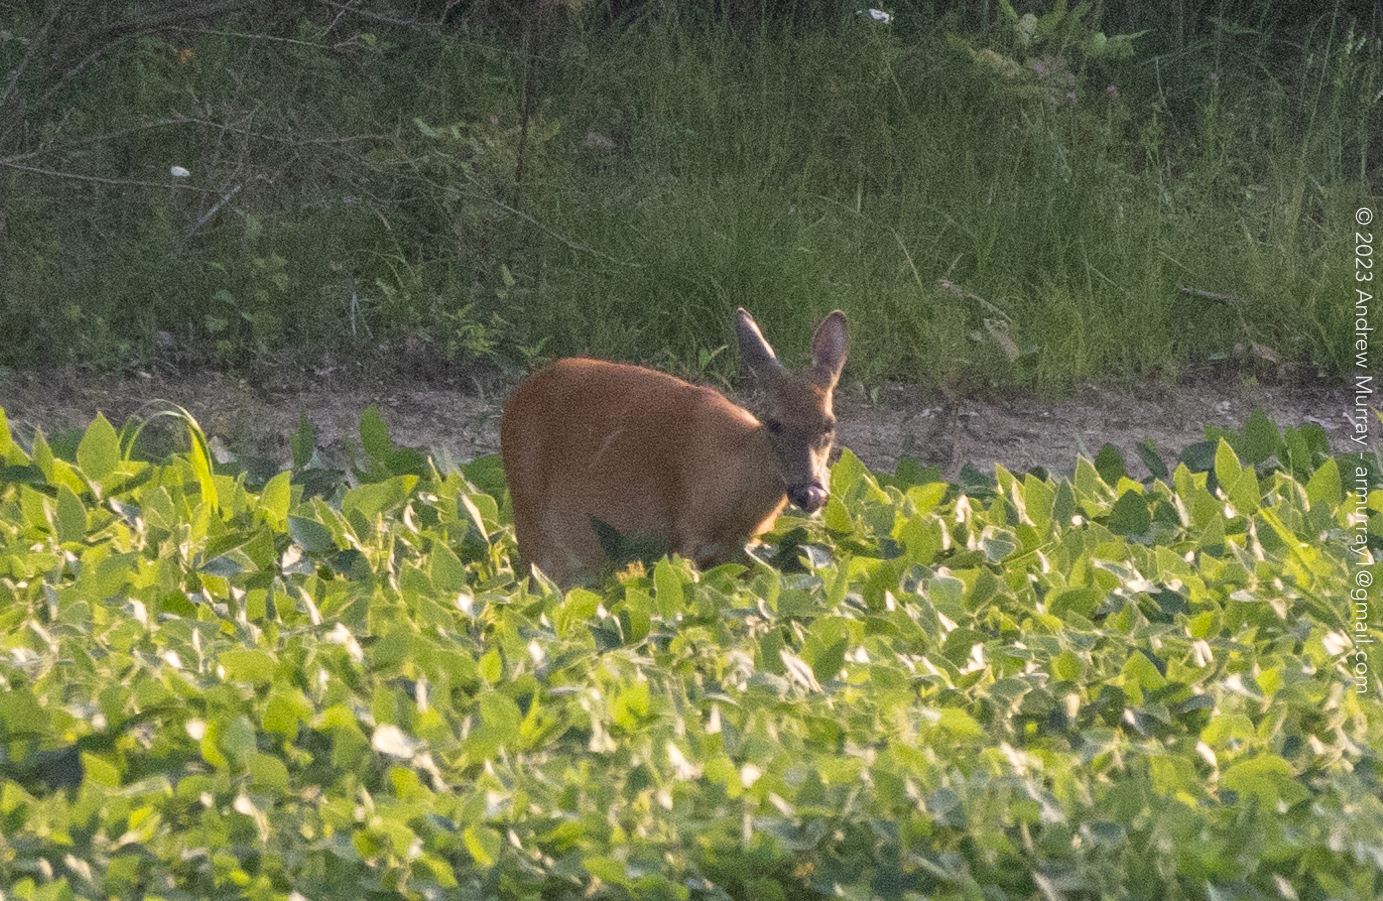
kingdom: Animalia
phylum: Chordata
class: Mammalia
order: Artiodactyla
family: Cervidae
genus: Odocoileus
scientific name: Odocoileus virginianus
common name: White-tailed deer
